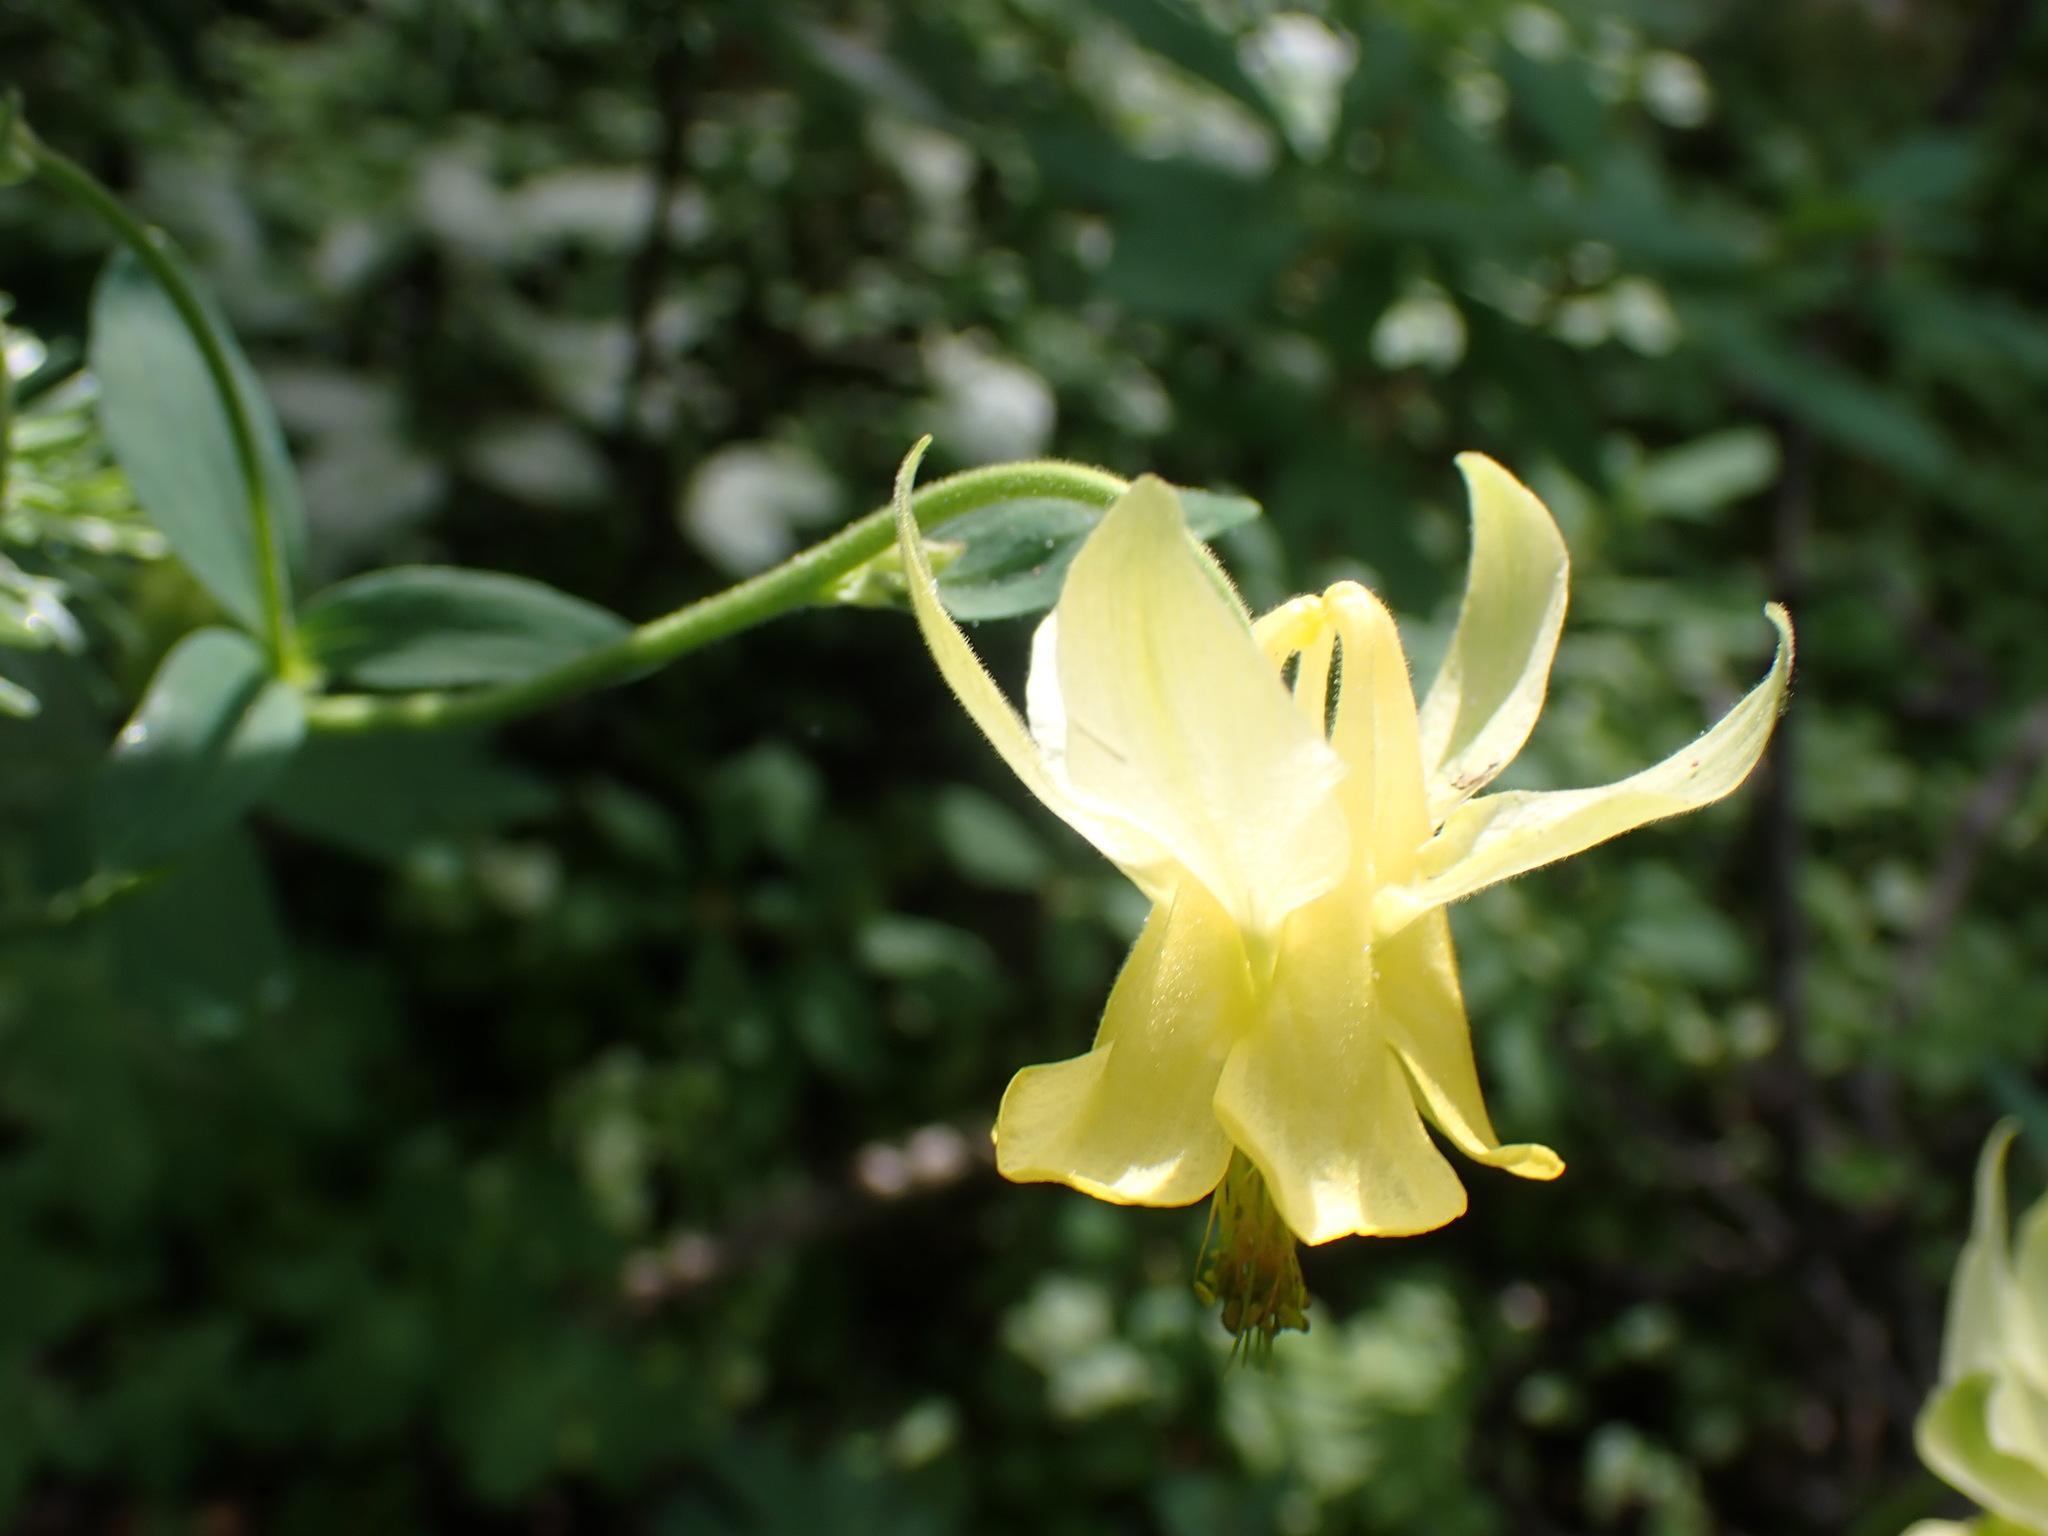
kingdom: Plantae
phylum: Tracheophyta
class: Magnoliopsida
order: Ranunculales
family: Ranunculaceae
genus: Aquilegia
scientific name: Aquilegia flavescens
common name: Yellow columbine
